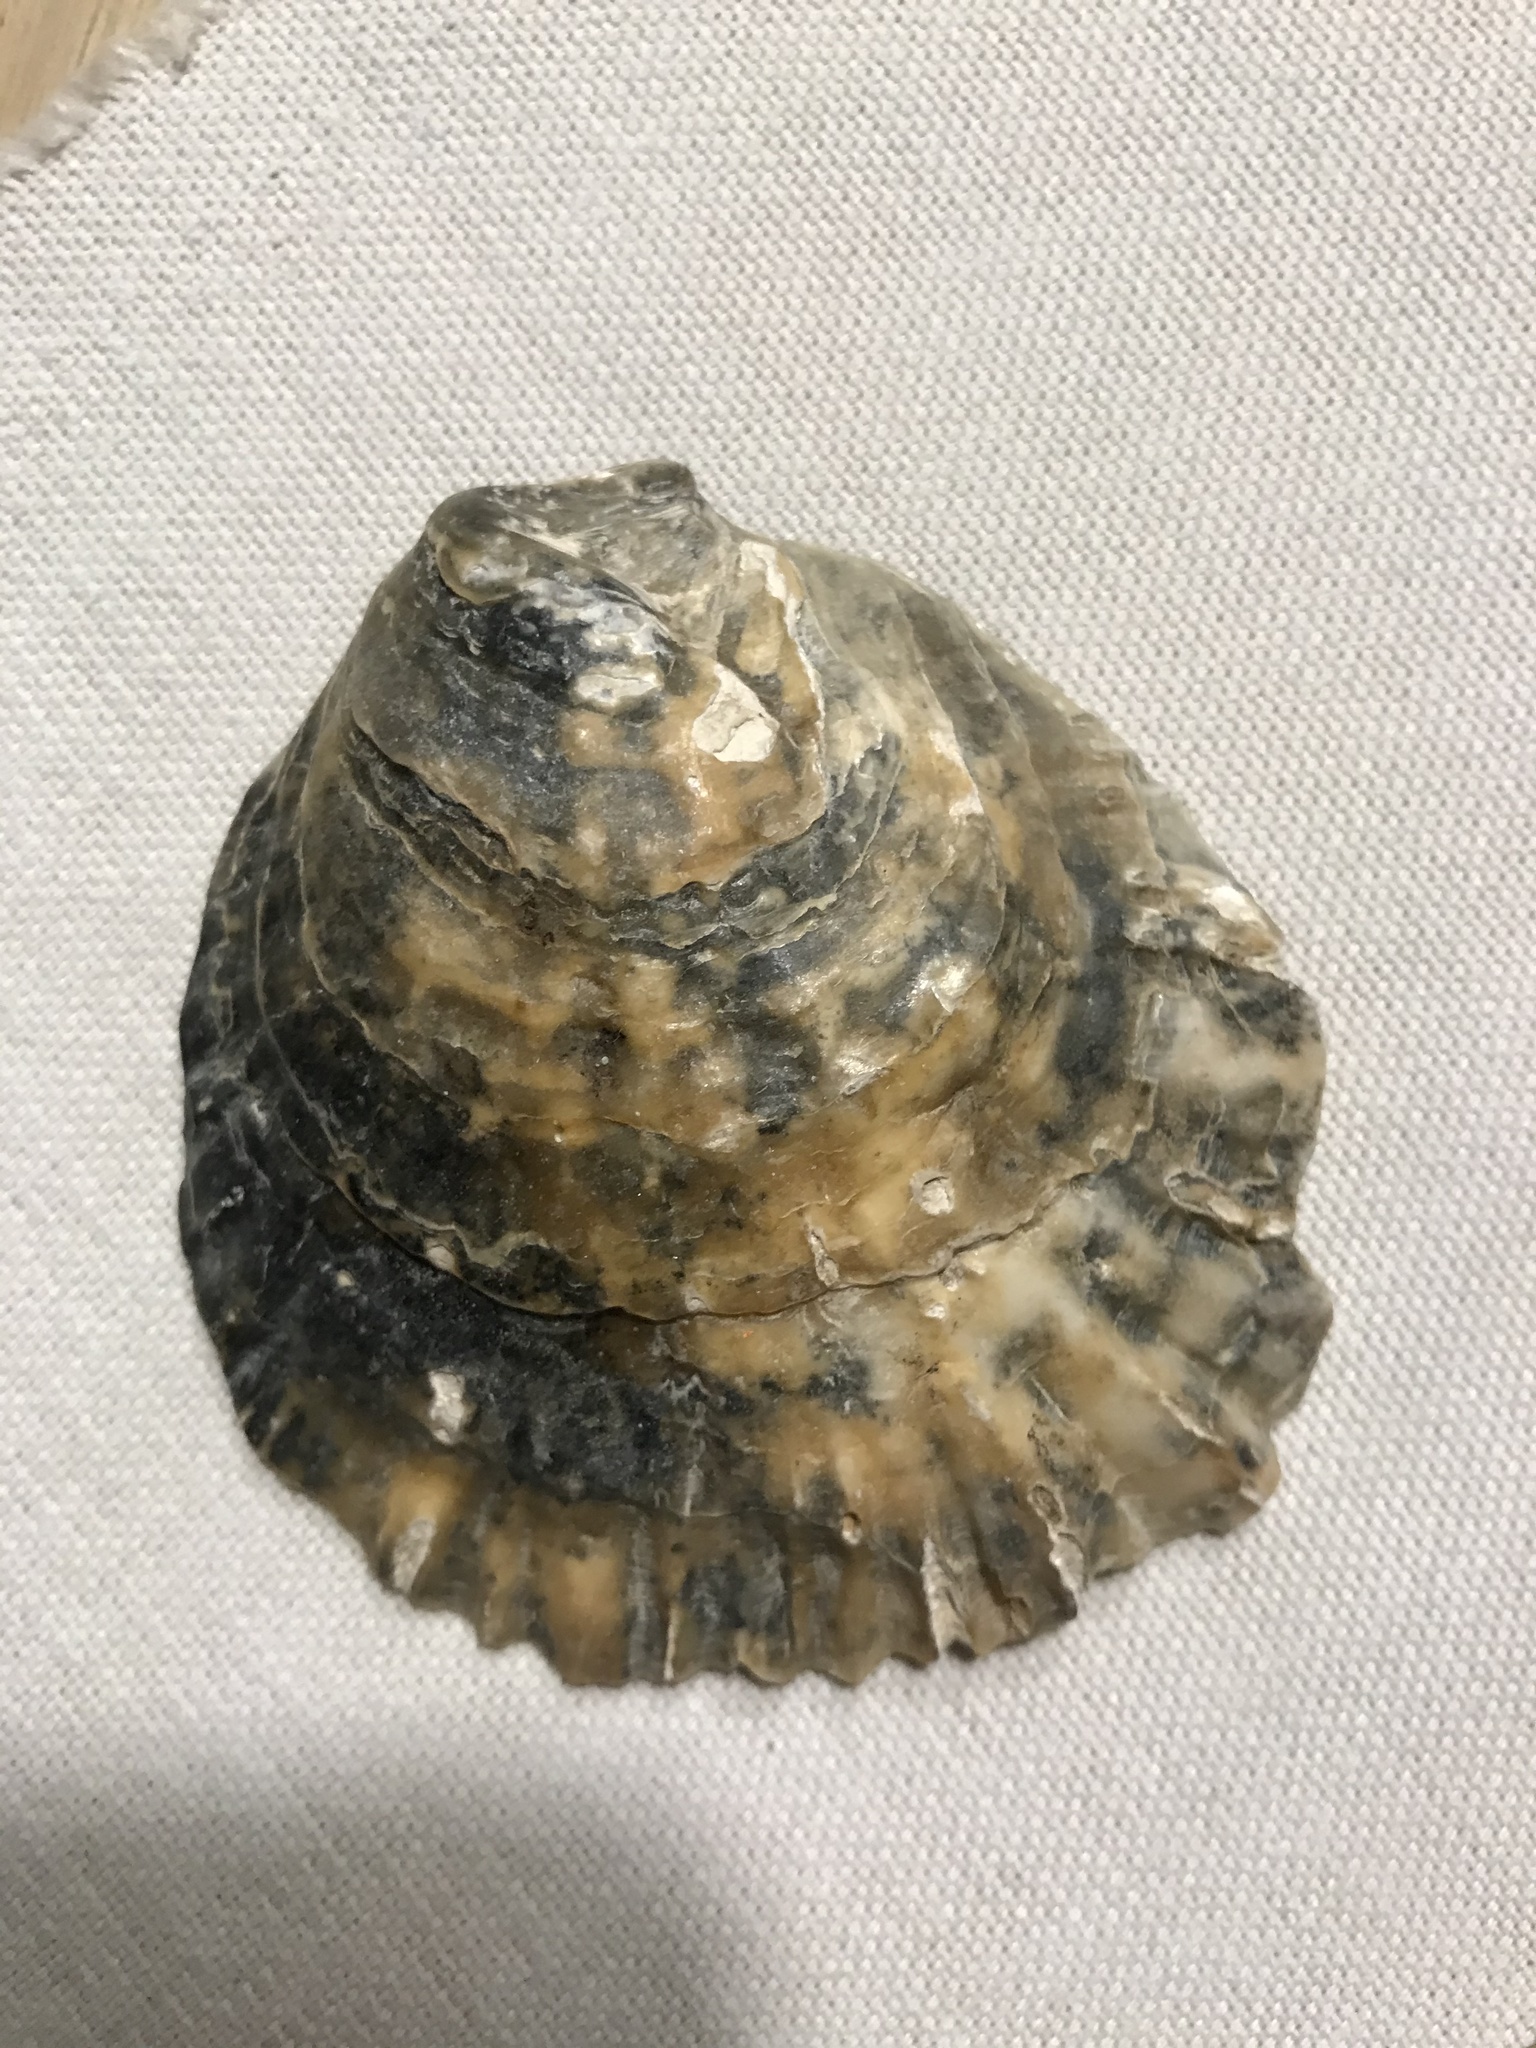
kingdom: Animalia
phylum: Mollusca
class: Bivalvia
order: Ostreida
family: Ostreidae
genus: Ostrea
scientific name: Ostrea edulis
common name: Flat oyster
